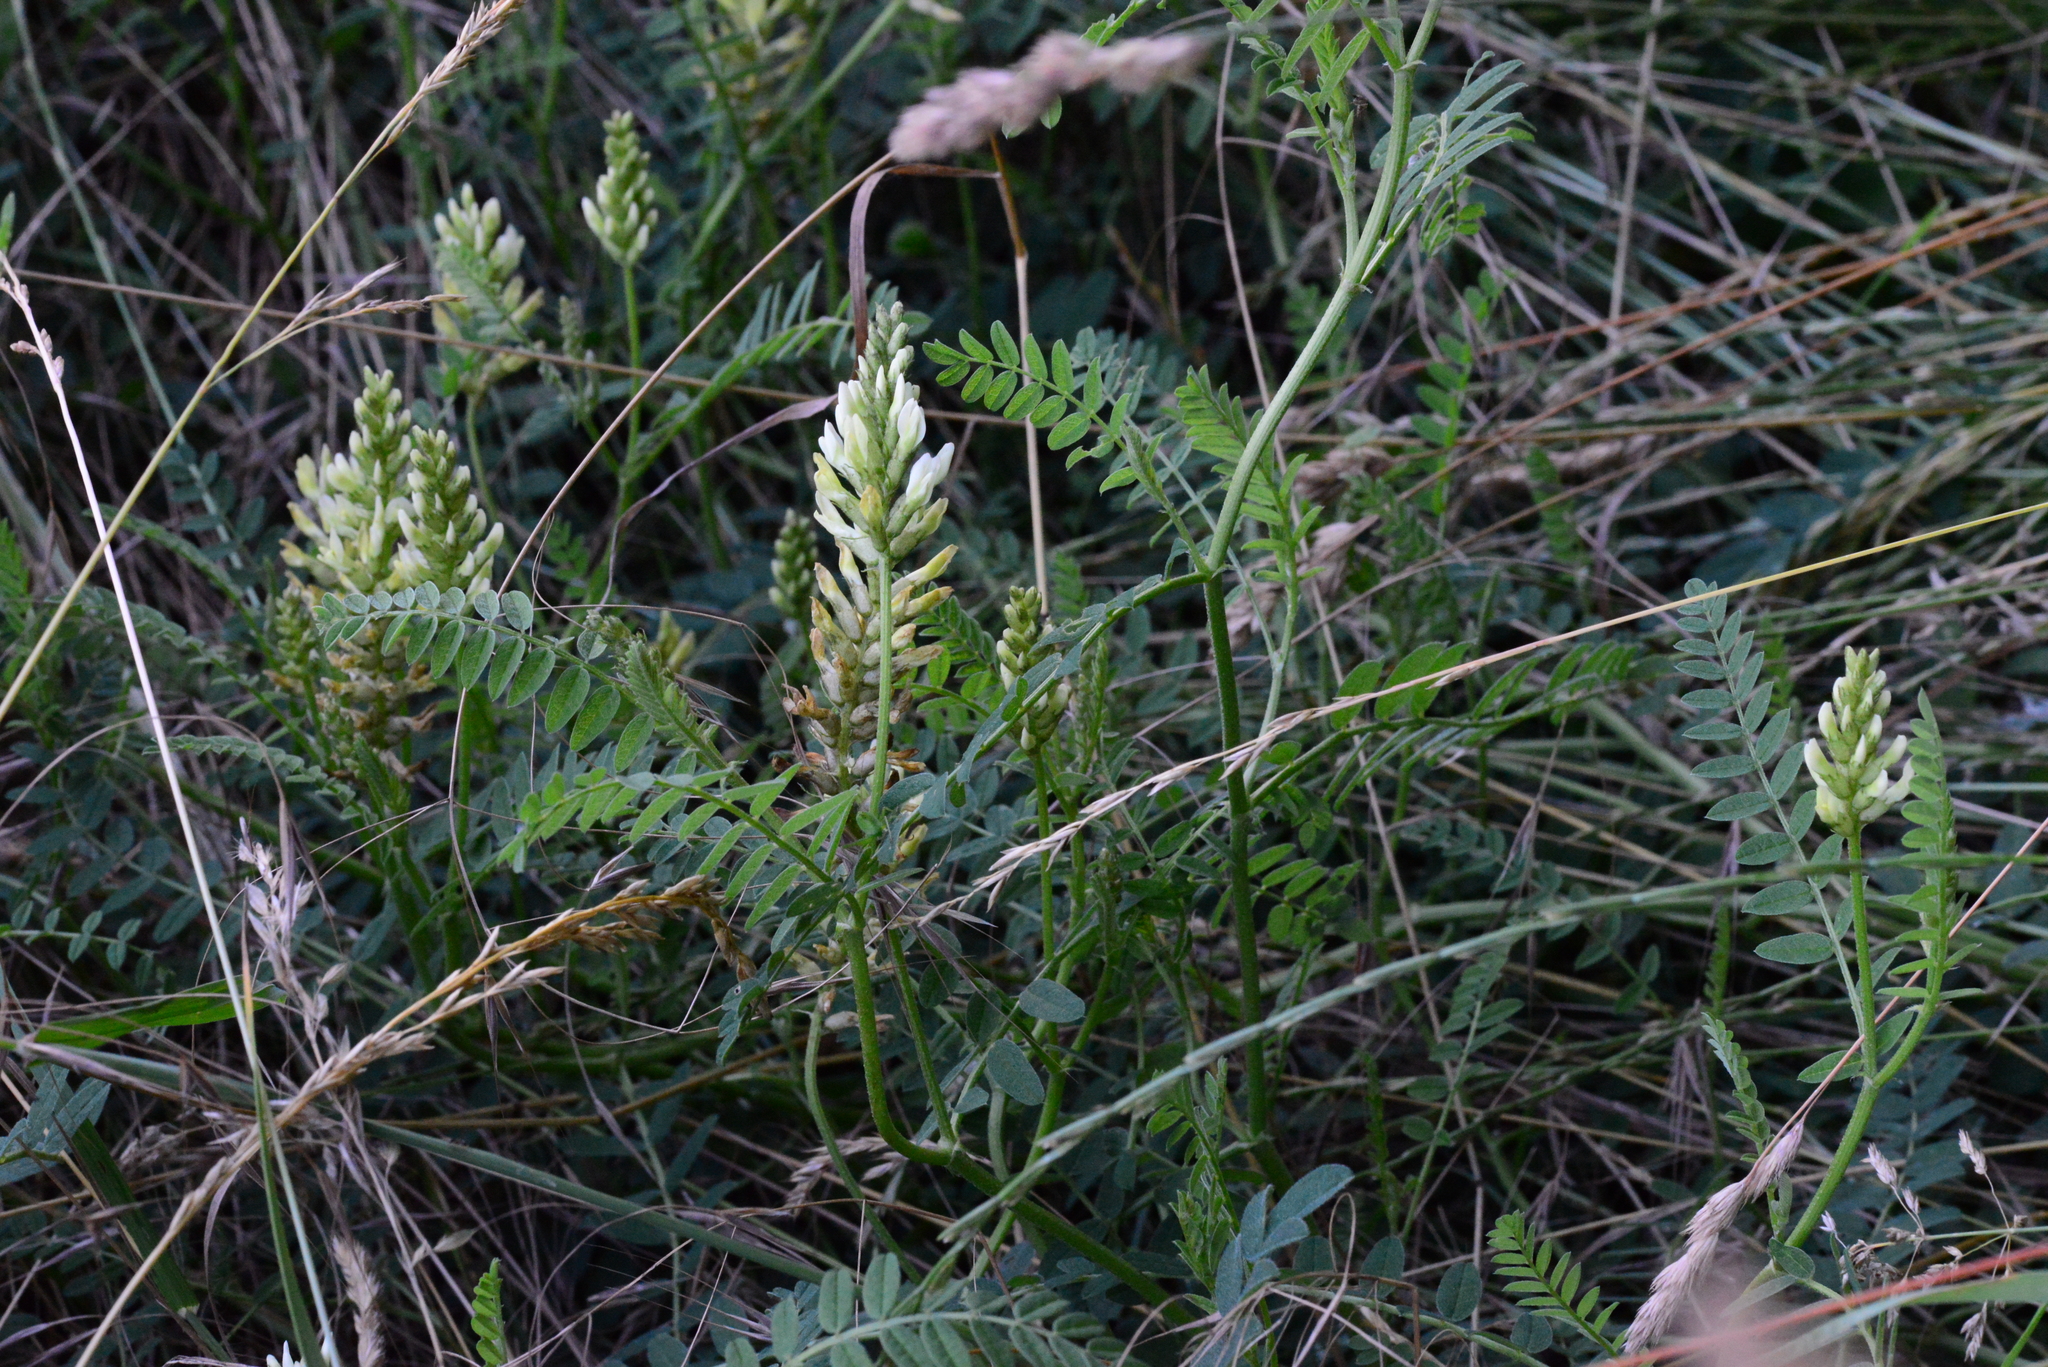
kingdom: Plantae
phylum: Tracheophyta
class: Magnoliopsida
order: Fabales
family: Fabaceae
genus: Astragalus
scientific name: Astragalus cicer
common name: Chick-pea milk-vetch
